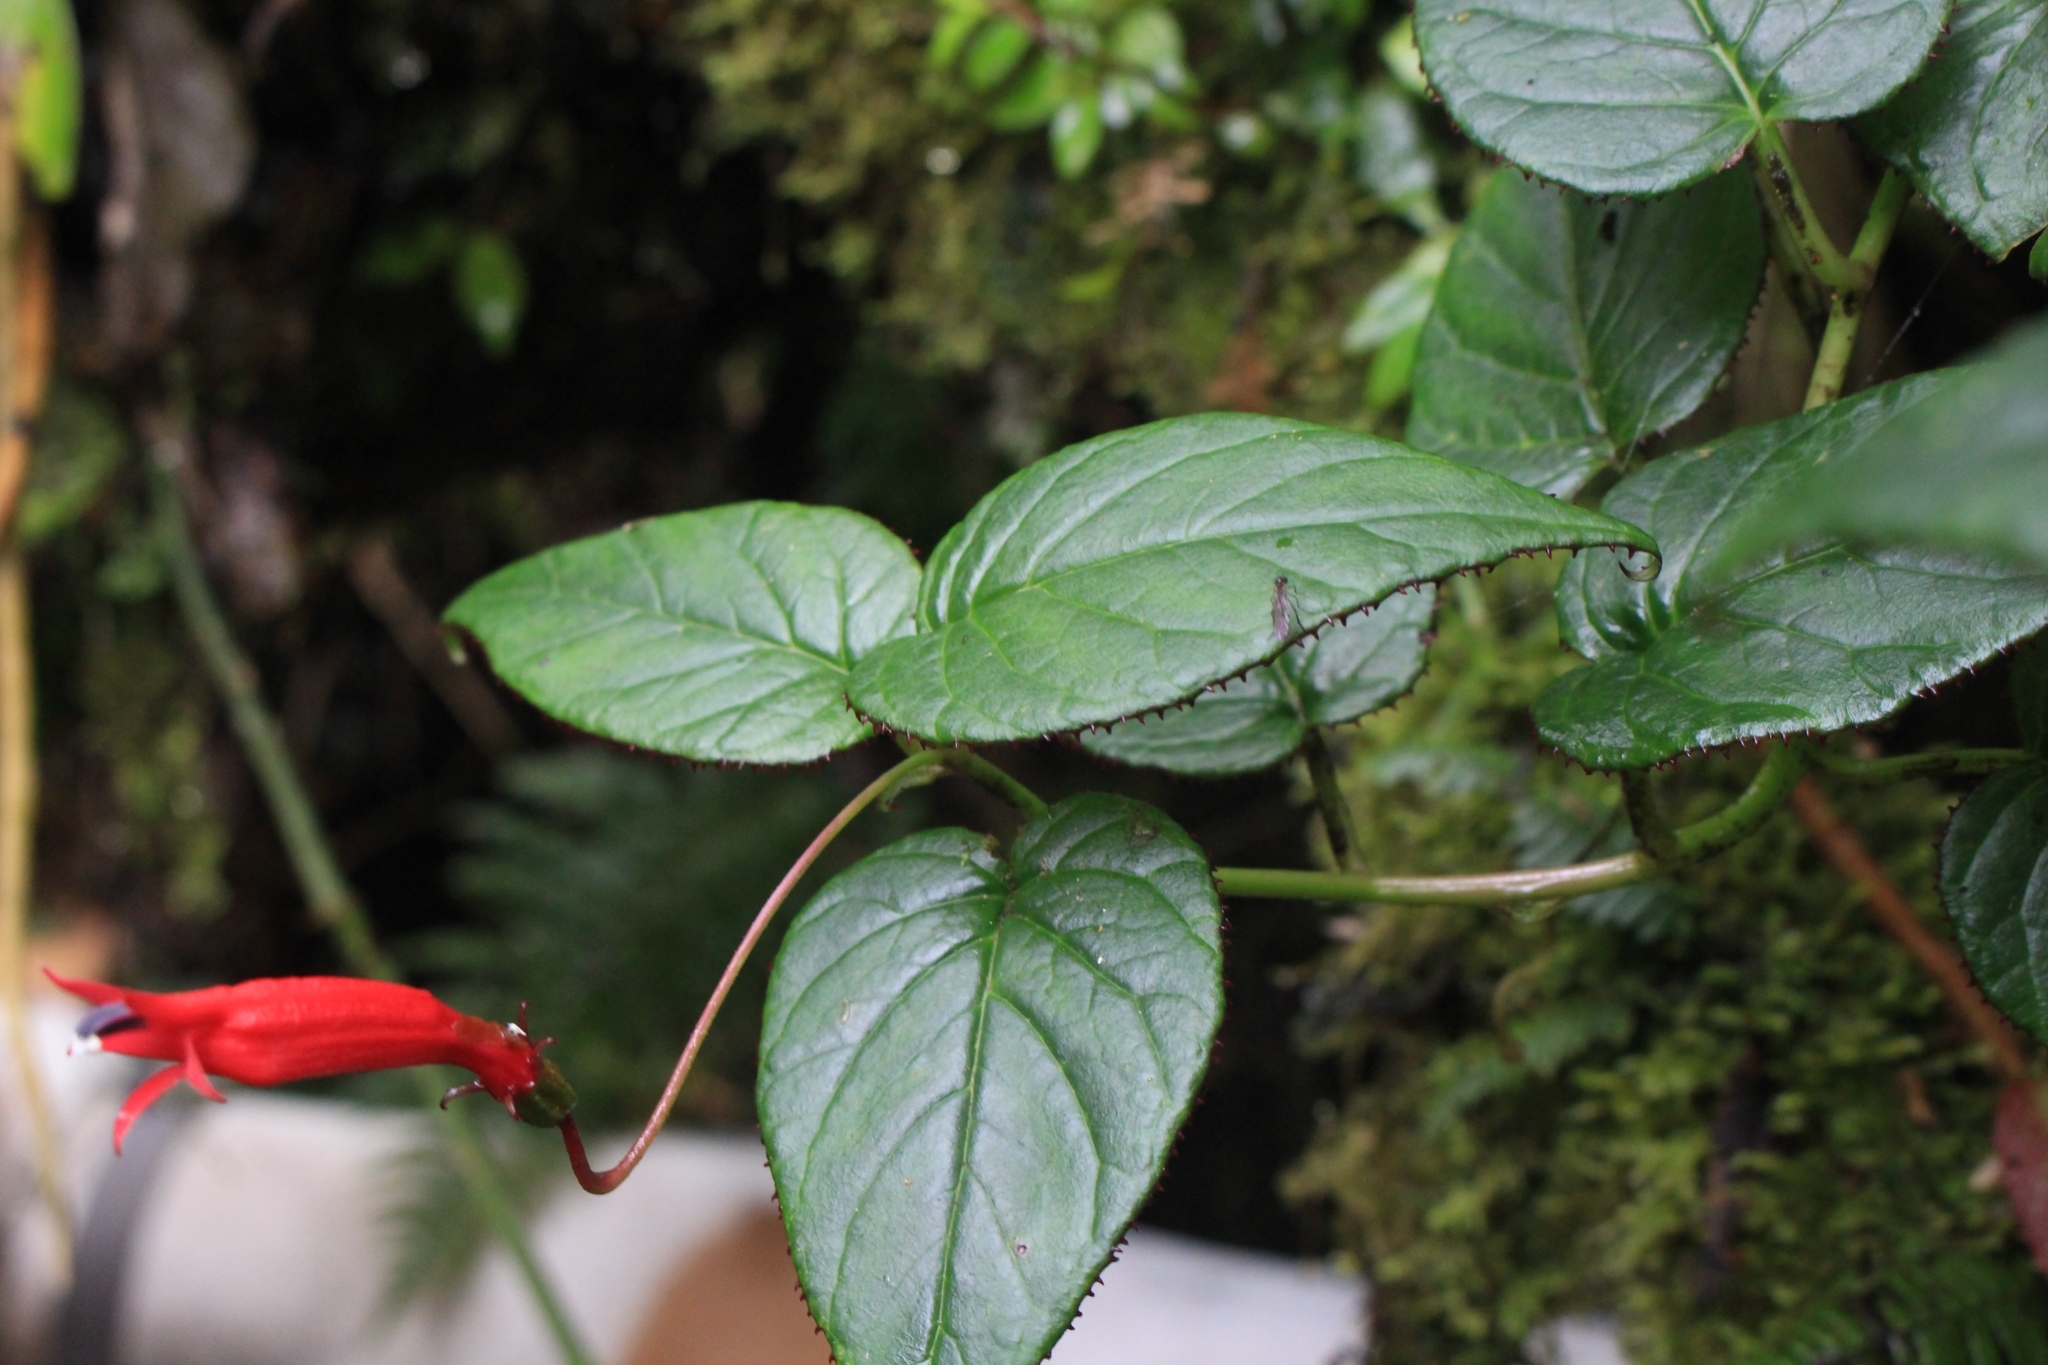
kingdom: Plantae
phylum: Tracheophyta
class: Magnoliopsida
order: Asterales
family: Campanulaceae
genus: Centropogon
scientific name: Centropogon costaricae
